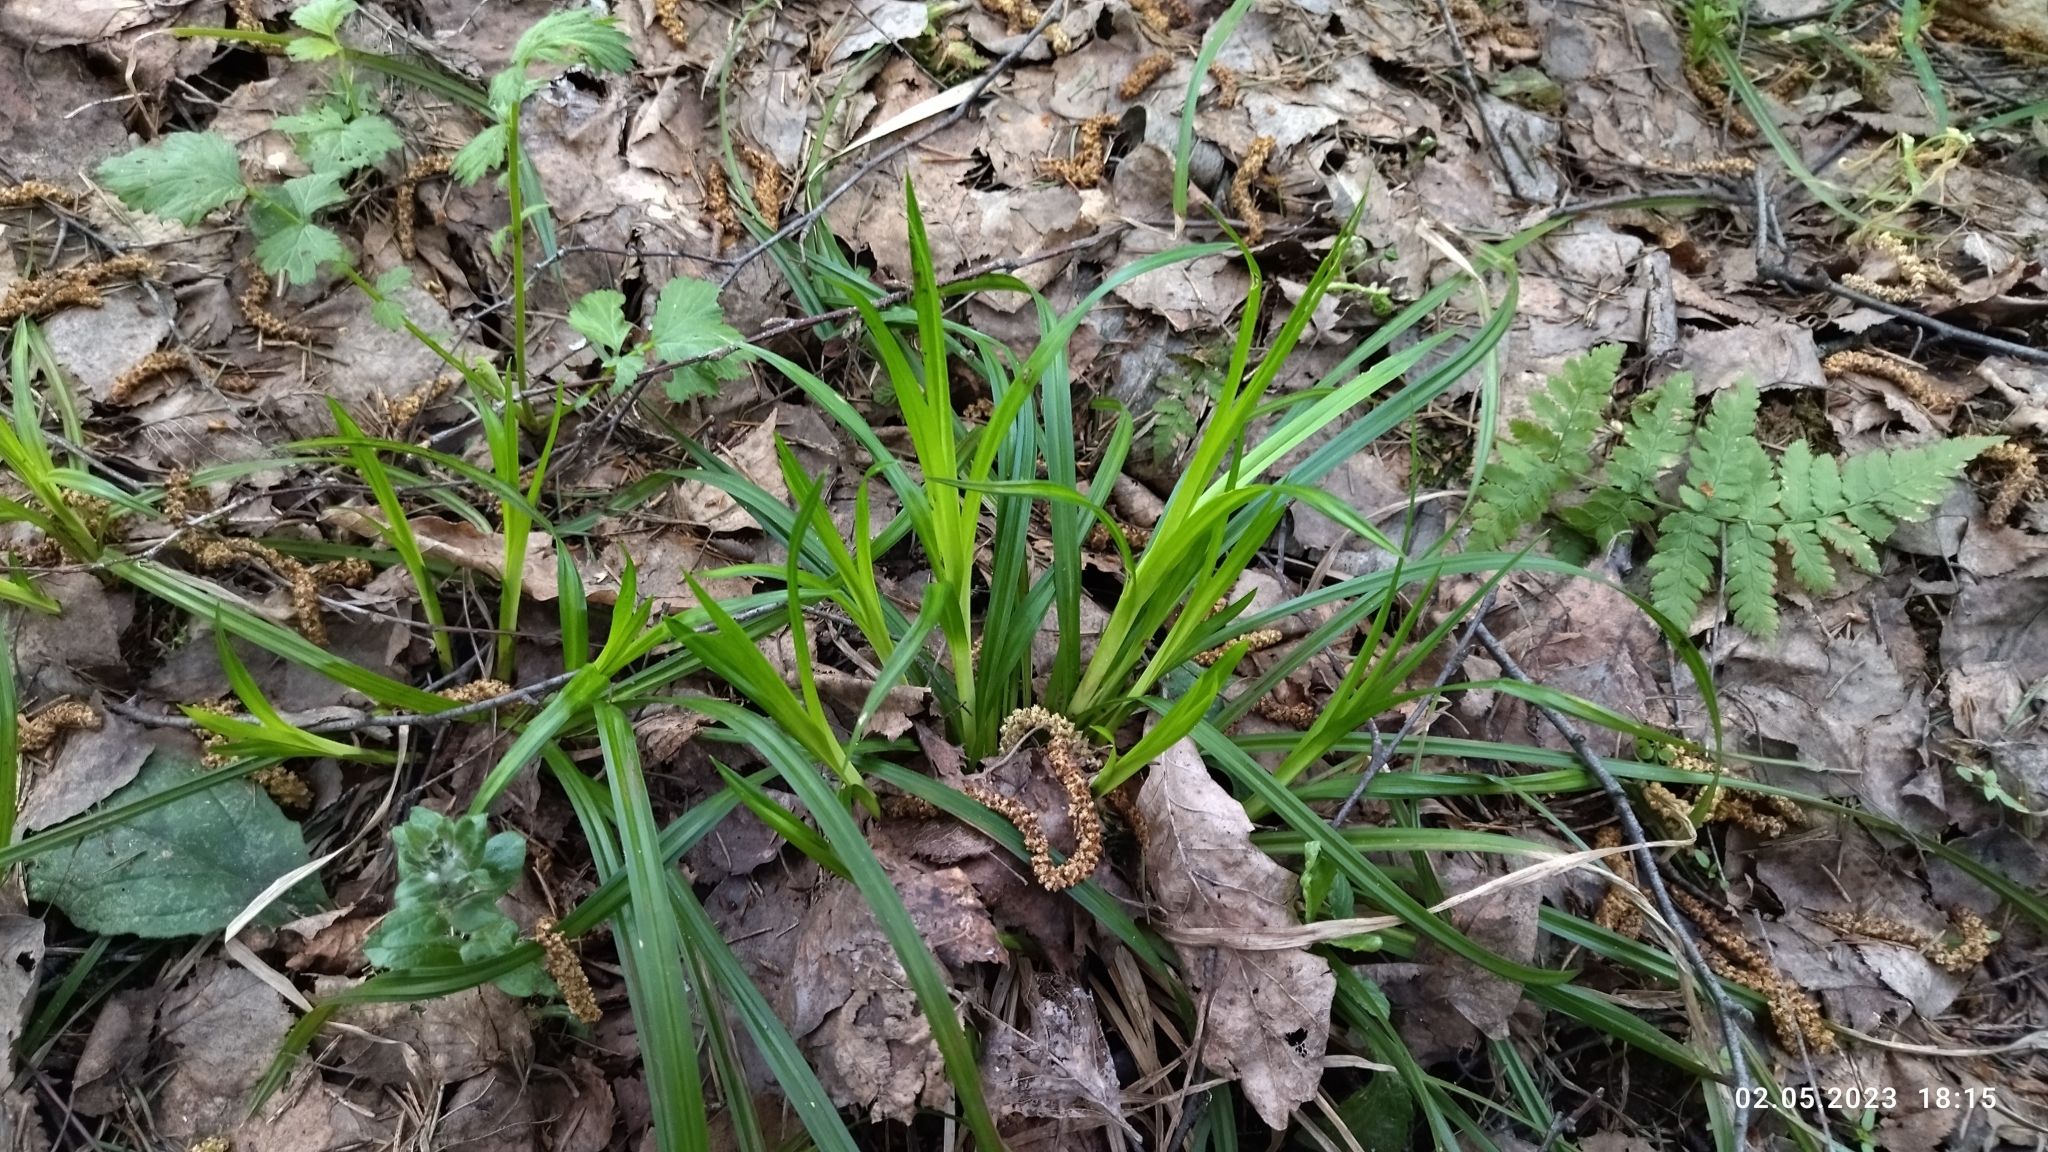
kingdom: Plantae
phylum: Tracheophyta
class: Liliopsida
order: Poales
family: Cyperaceae
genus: Carex
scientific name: Carex sylvatica
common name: Wood-sedge
